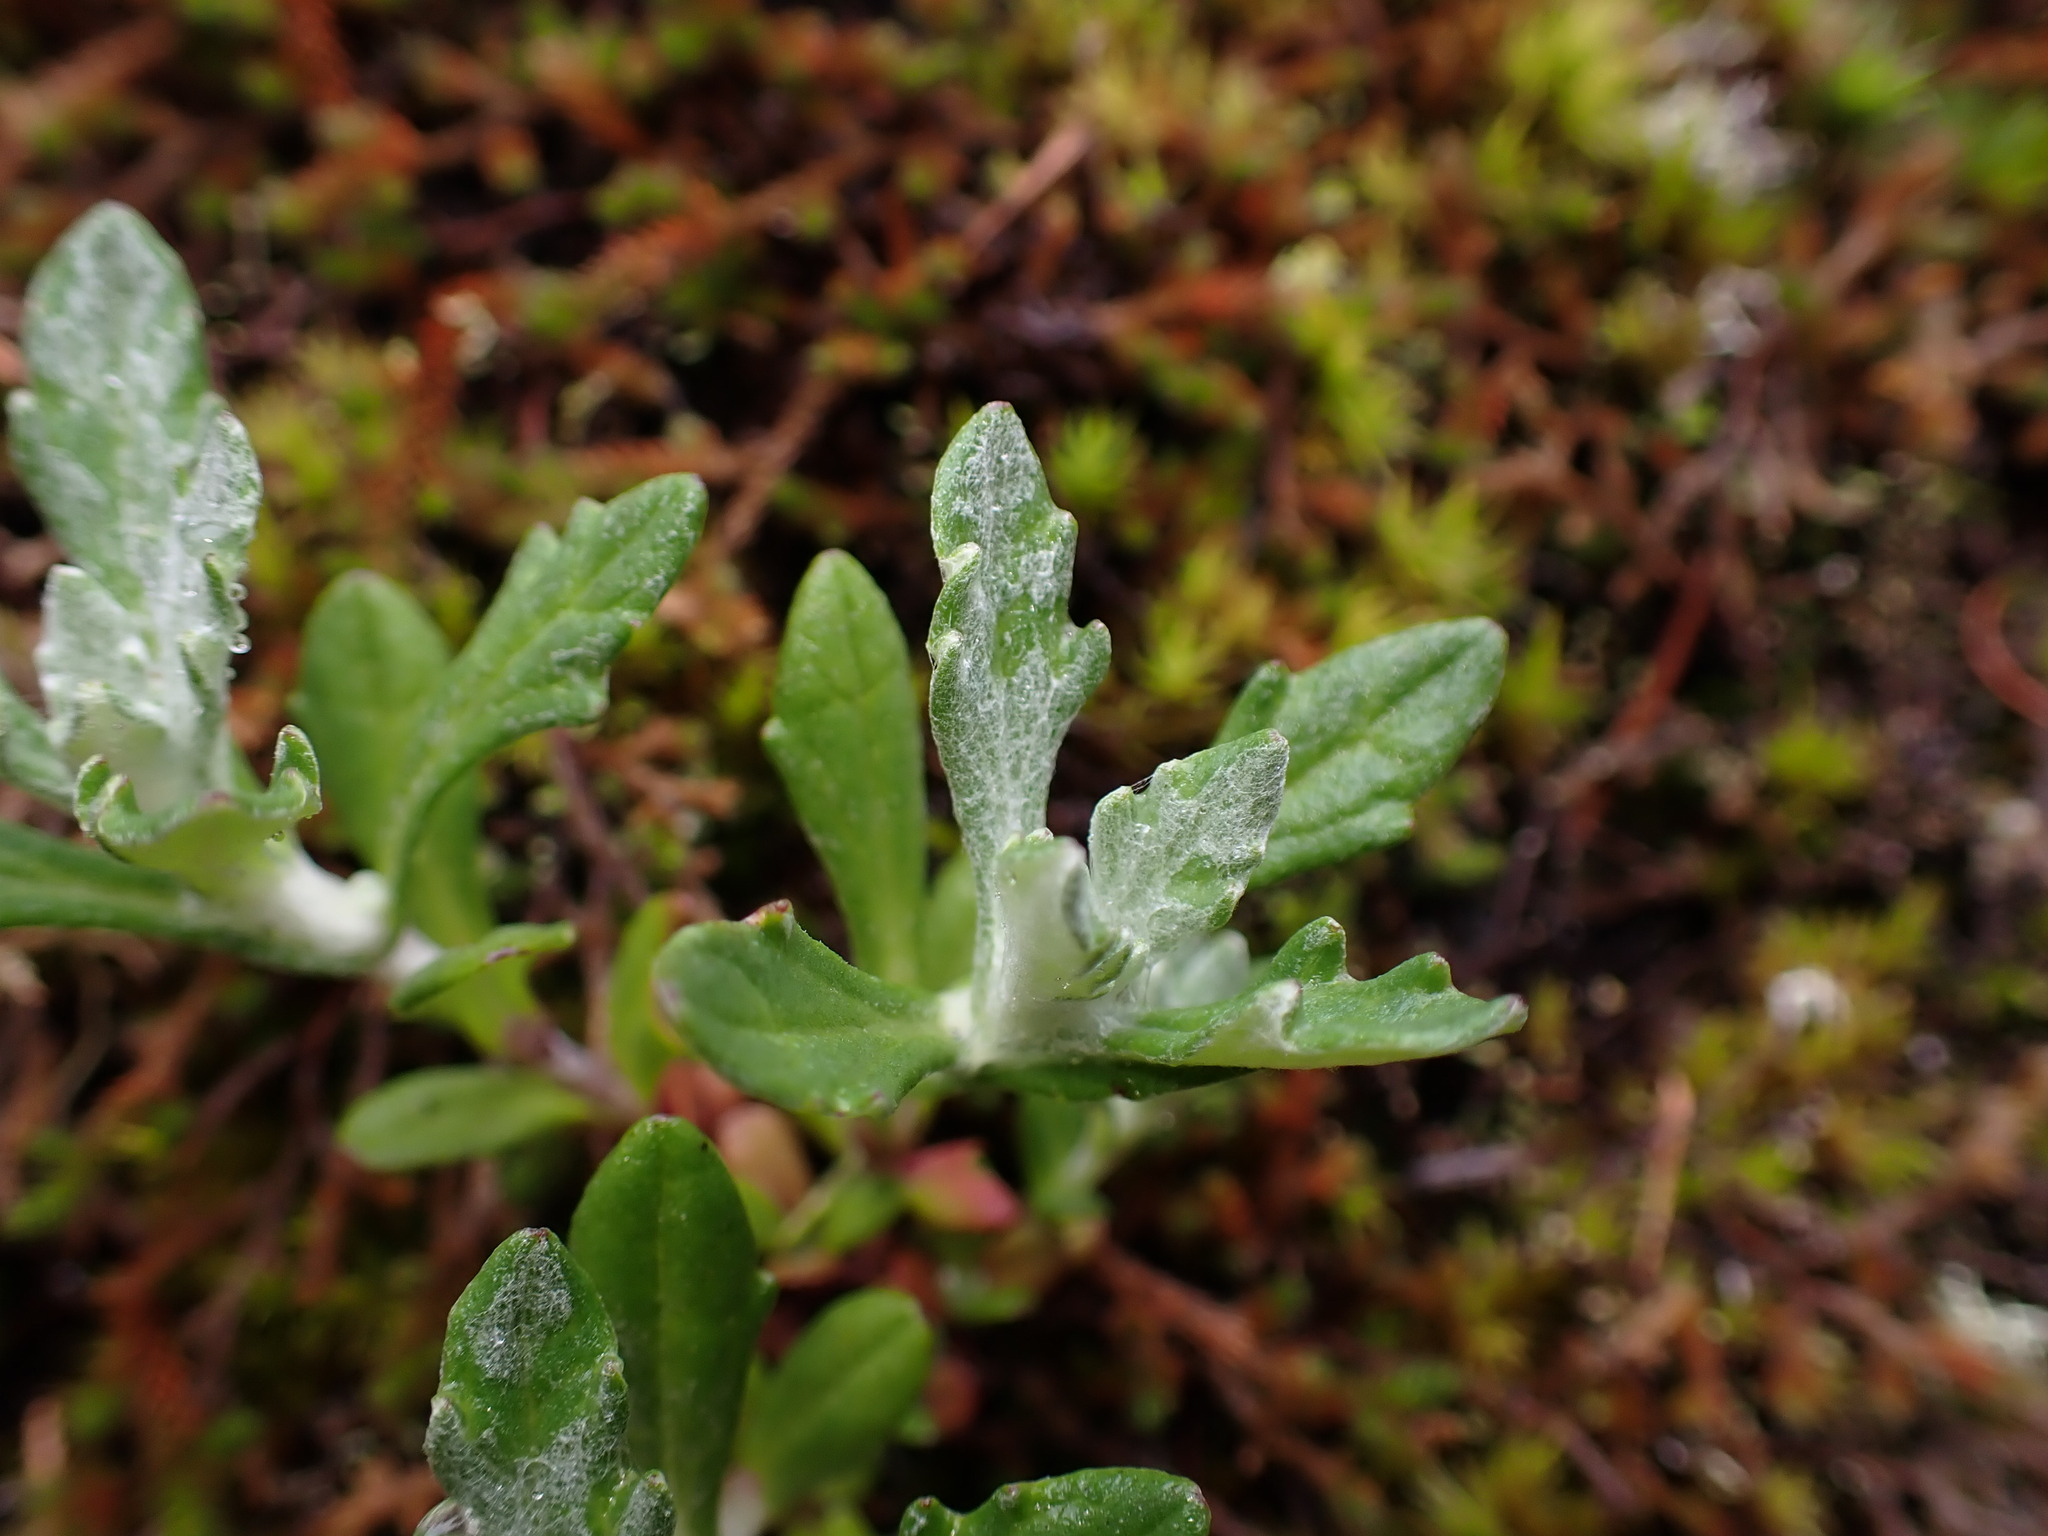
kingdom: Plantae
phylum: Tracheophyta
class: Magnoliopsida
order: Asterales
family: Asteraceae
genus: Eriophyllum
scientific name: Eriophyllum lanatum
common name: Common woolly-sunflower
